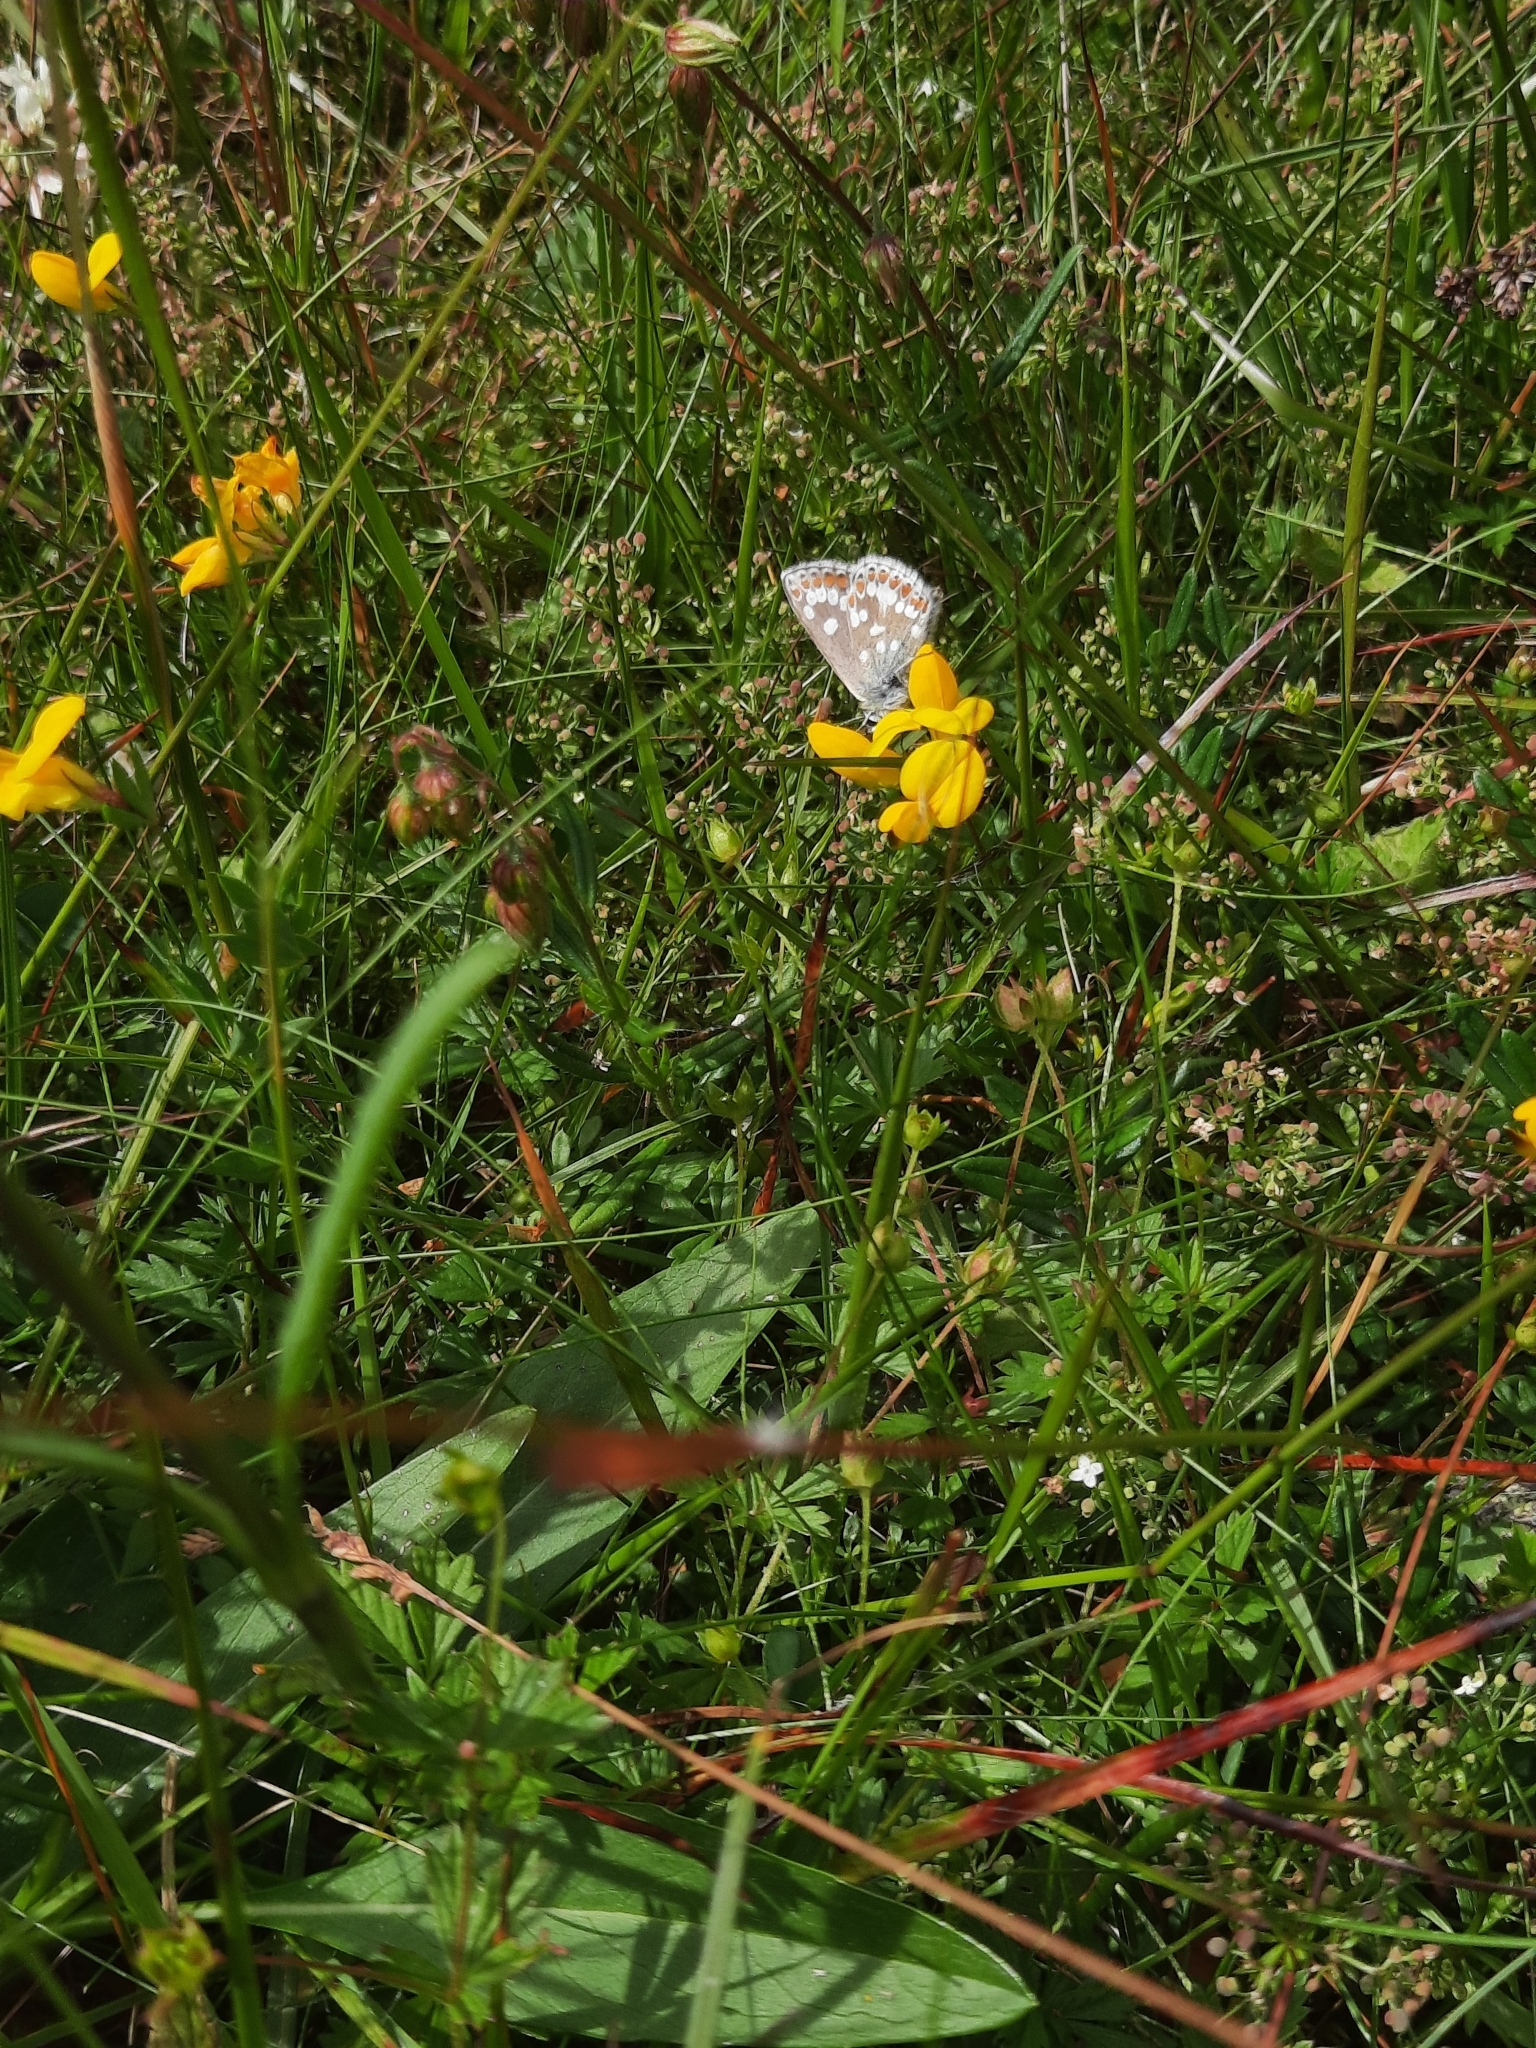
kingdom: Animalia
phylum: Arthropoda
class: Insecta
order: Lepidoptera
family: Lycaenidae
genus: Aricia
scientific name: Aricia artaxerxes
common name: Northern brown argus
